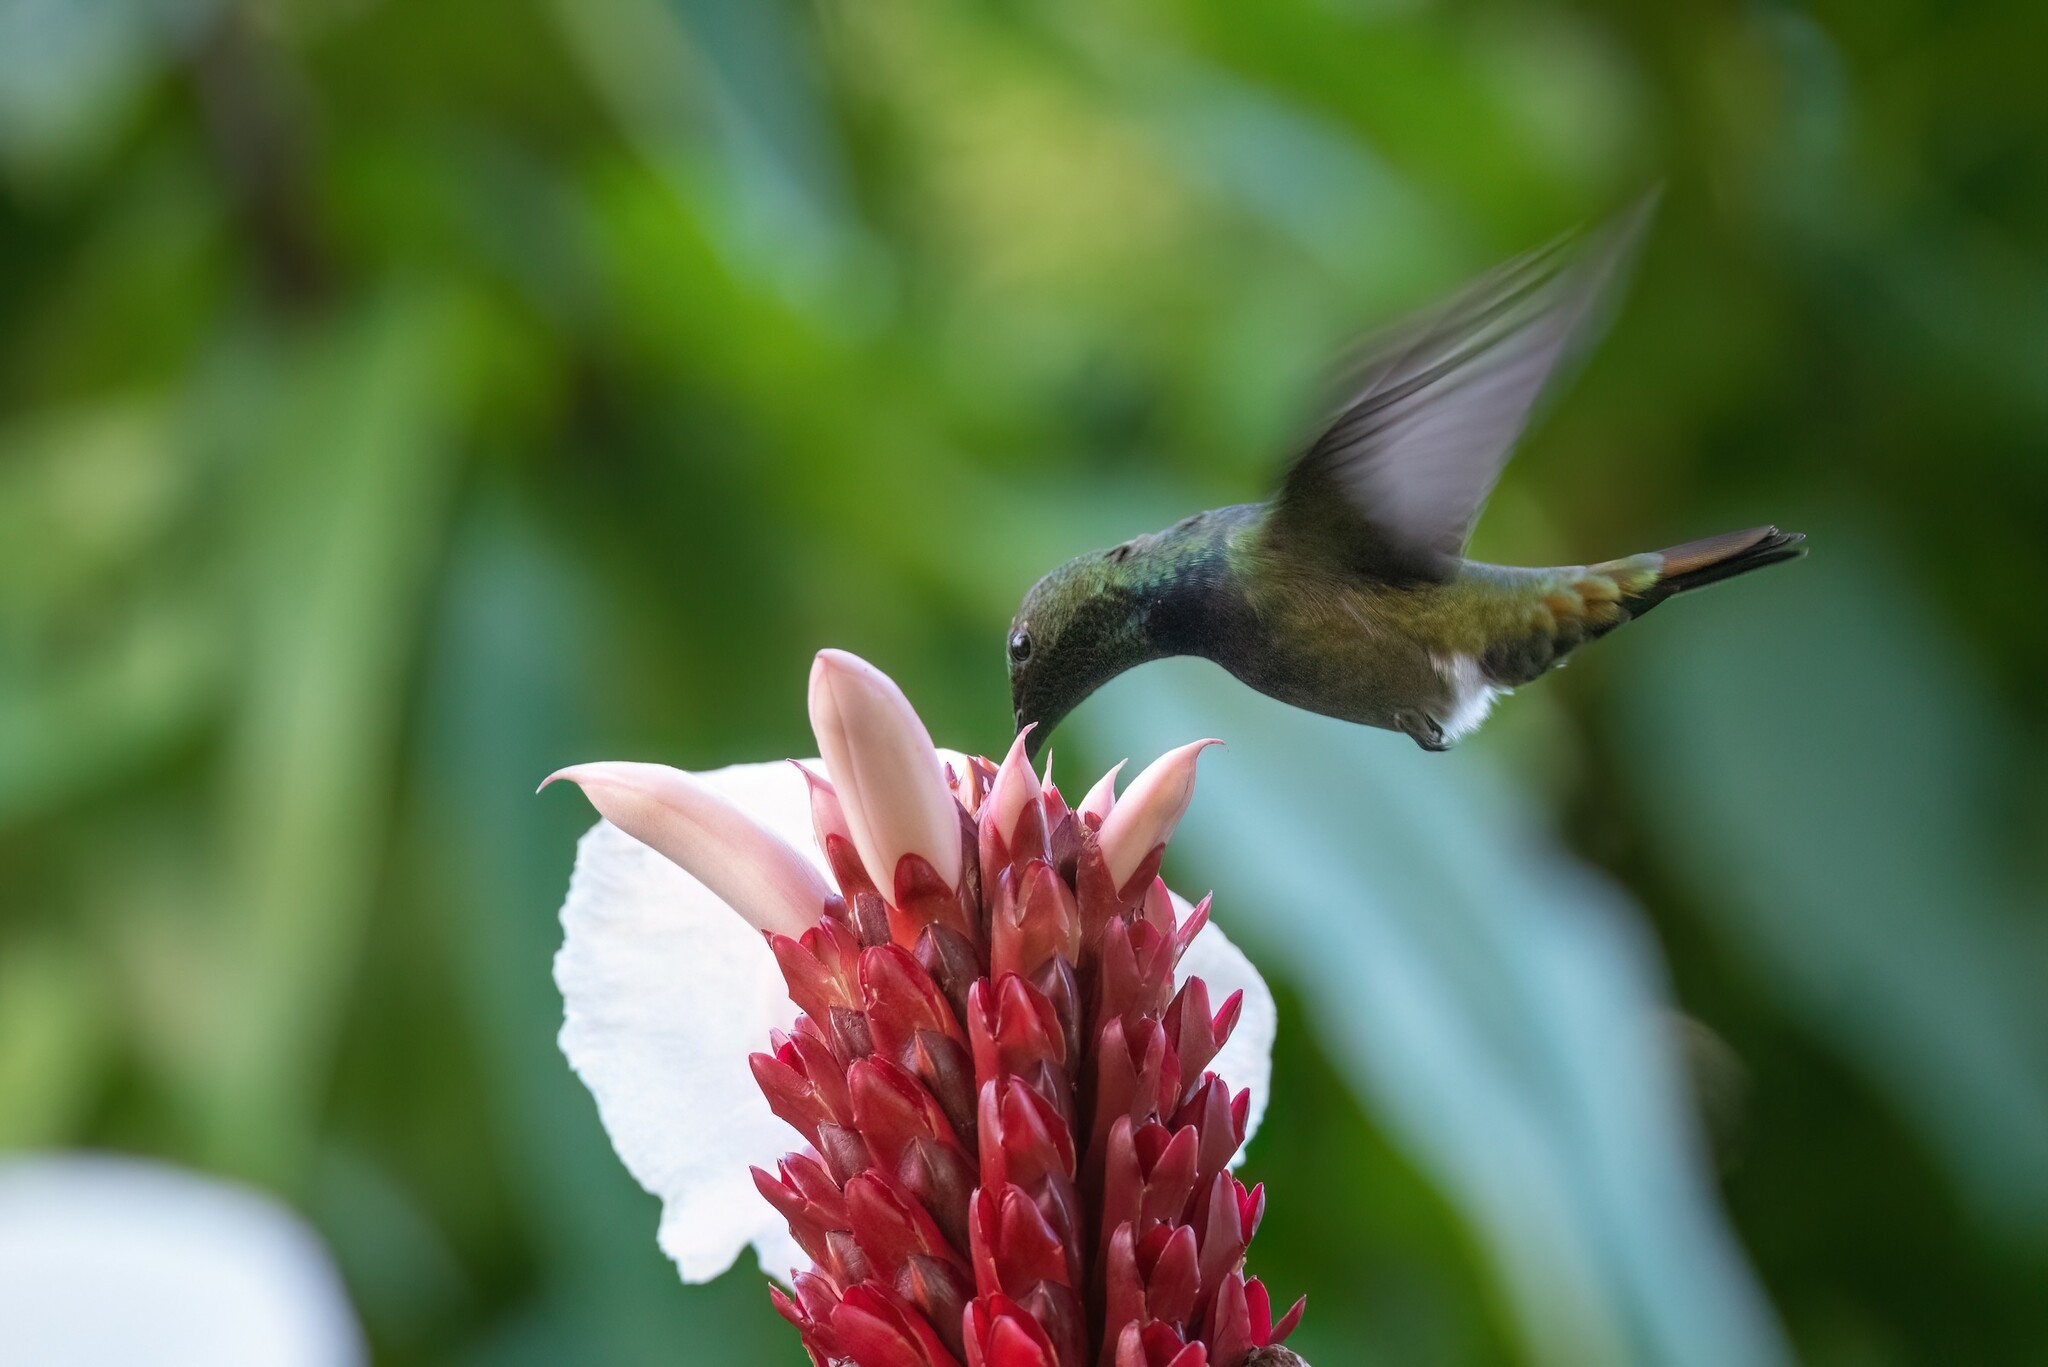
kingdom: Animalia
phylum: Chordata
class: Aves
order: Apodiformes
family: Trochilidae
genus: Anthracothorax
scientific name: Anthracothorax dominicus
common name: Antillean mango
